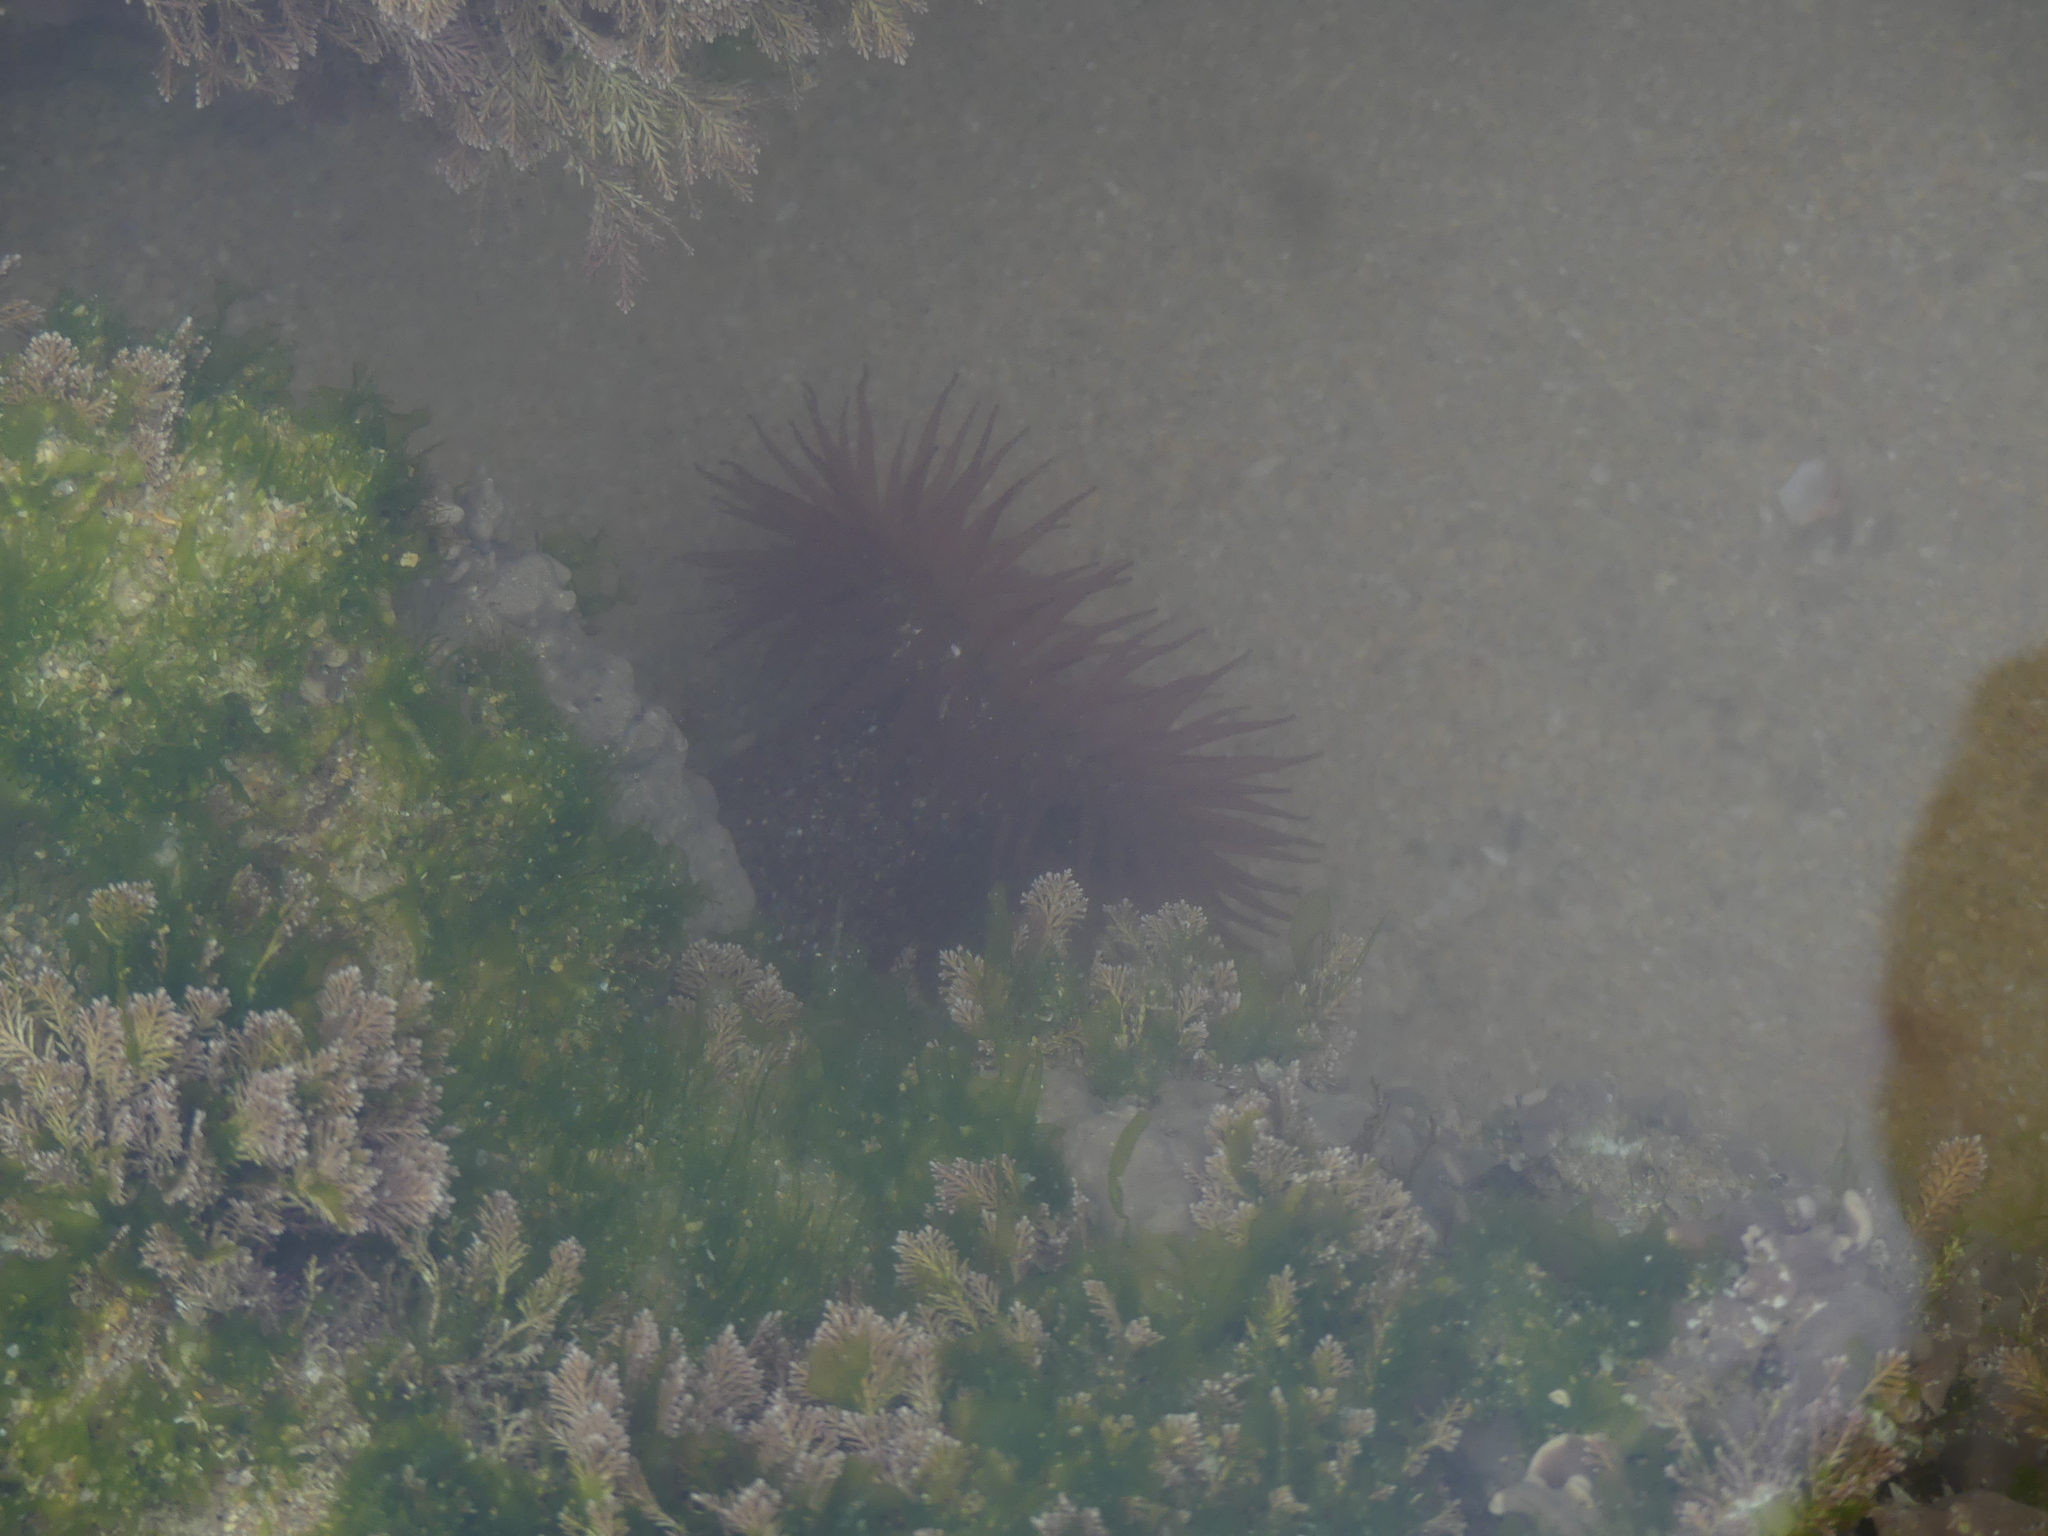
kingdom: Animalia
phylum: Cnidaria
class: Anthozoa
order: Actiniaria
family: Actiniidae
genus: Actinia
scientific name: Actinia fragacea
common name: Strawberry anemone
